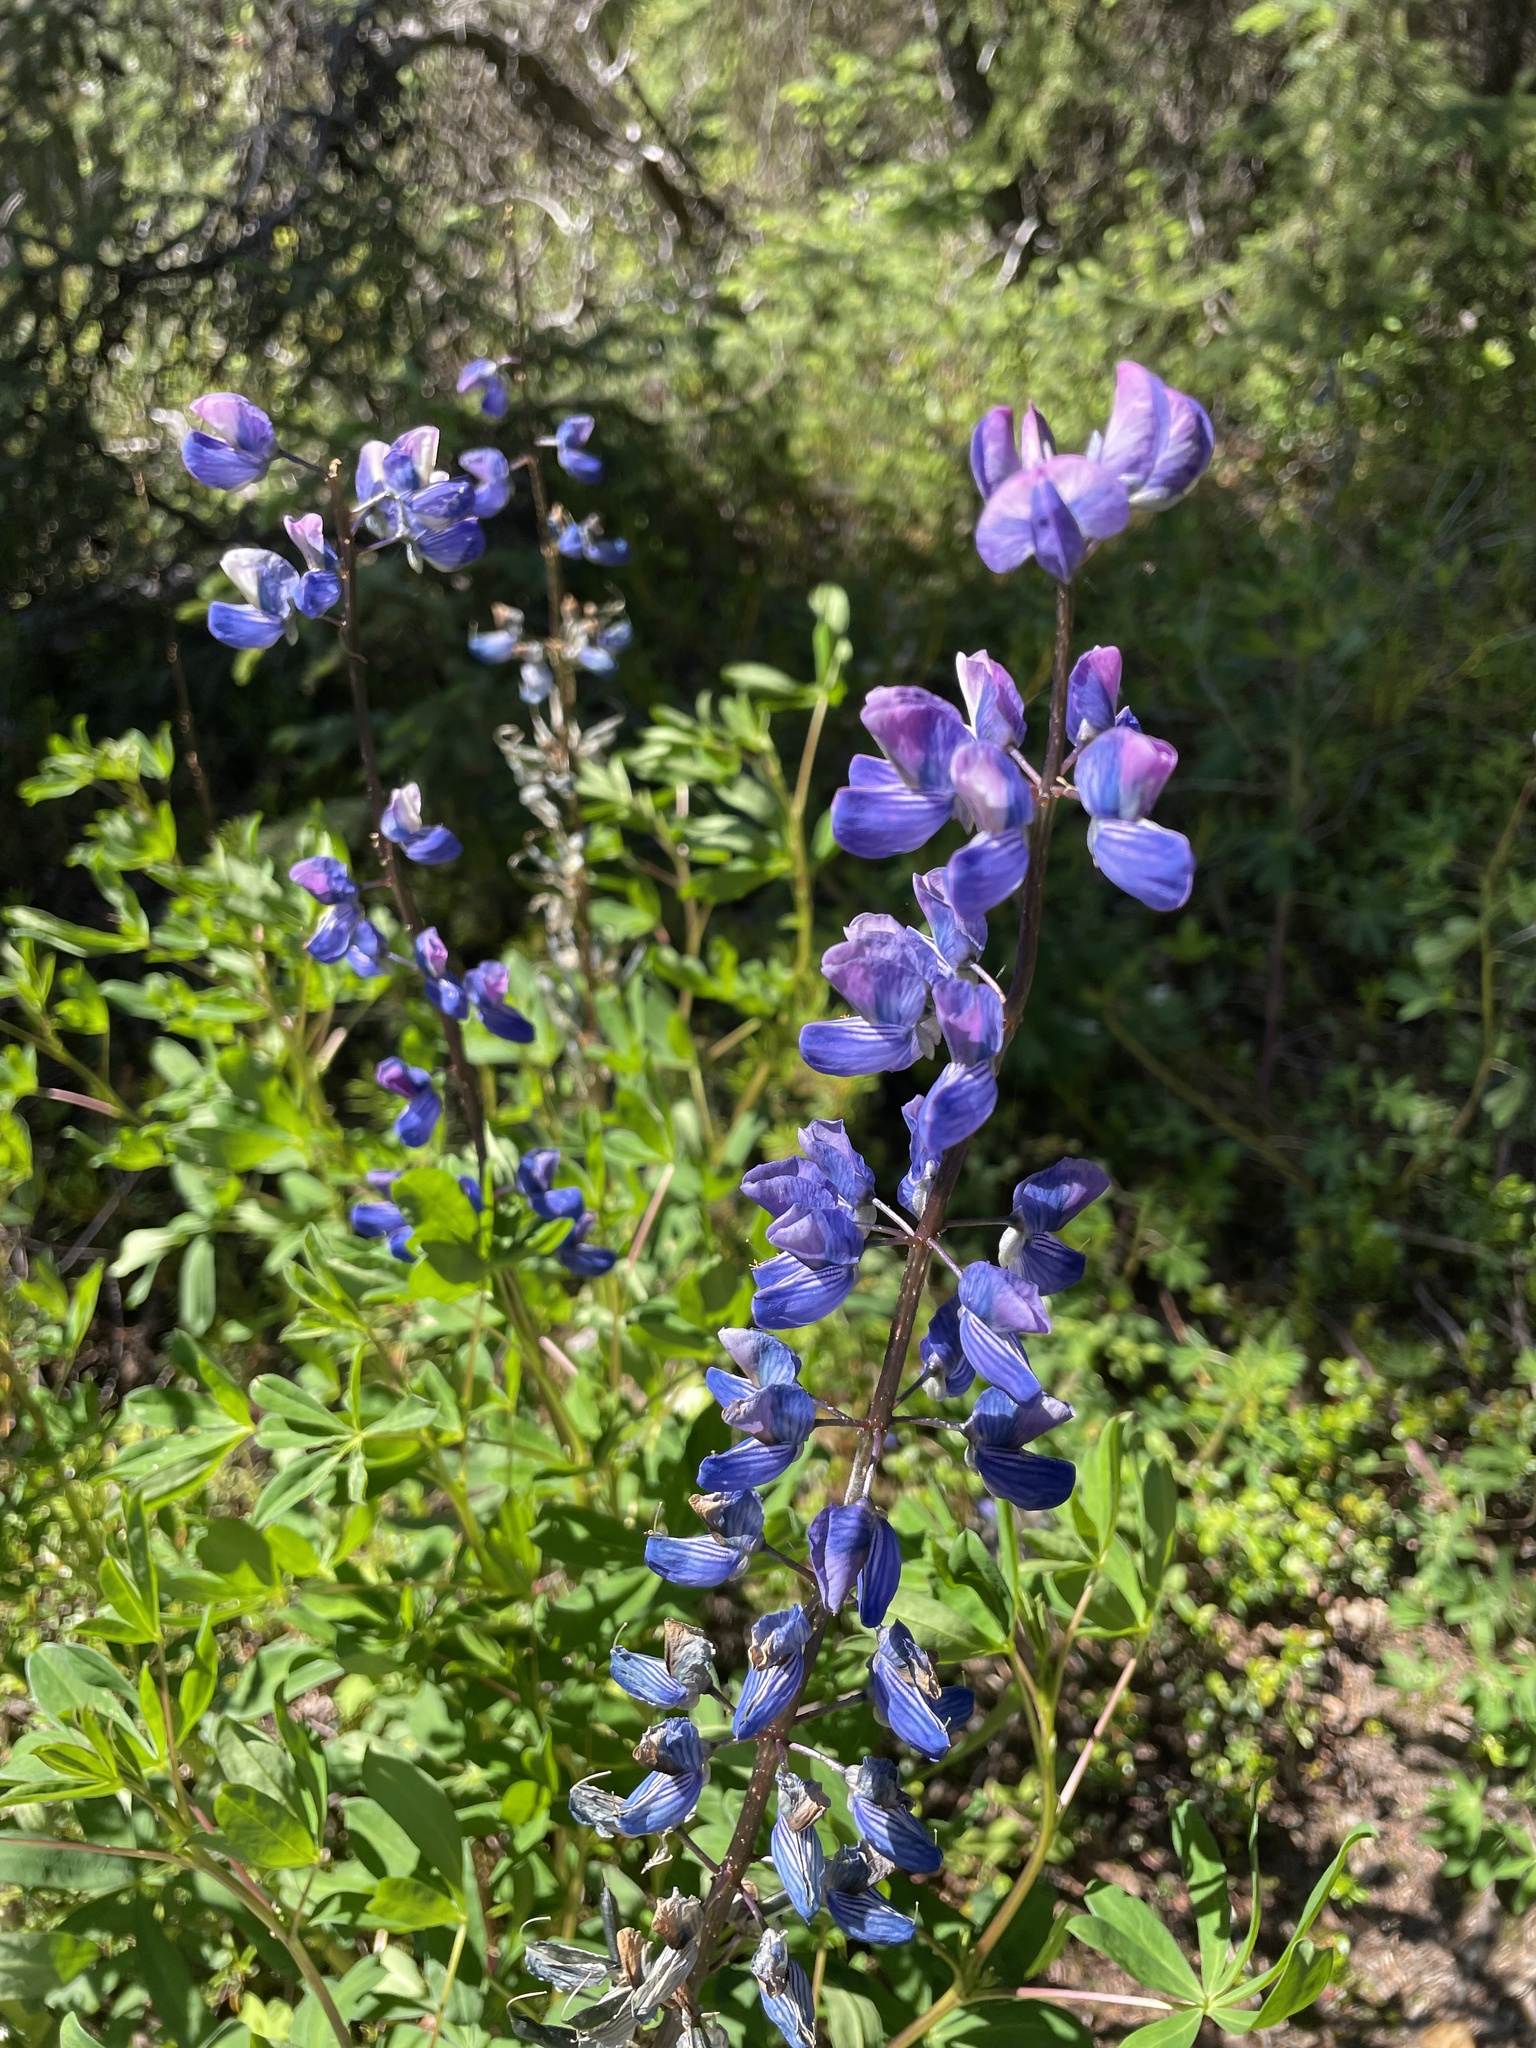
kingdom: Plantae
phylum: Tracheophyta
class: Magnoliopsida
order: Fabales
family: Fabaceae
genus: Lupinus
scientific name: Lupinus nootkatensis
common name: Nootka lupine
